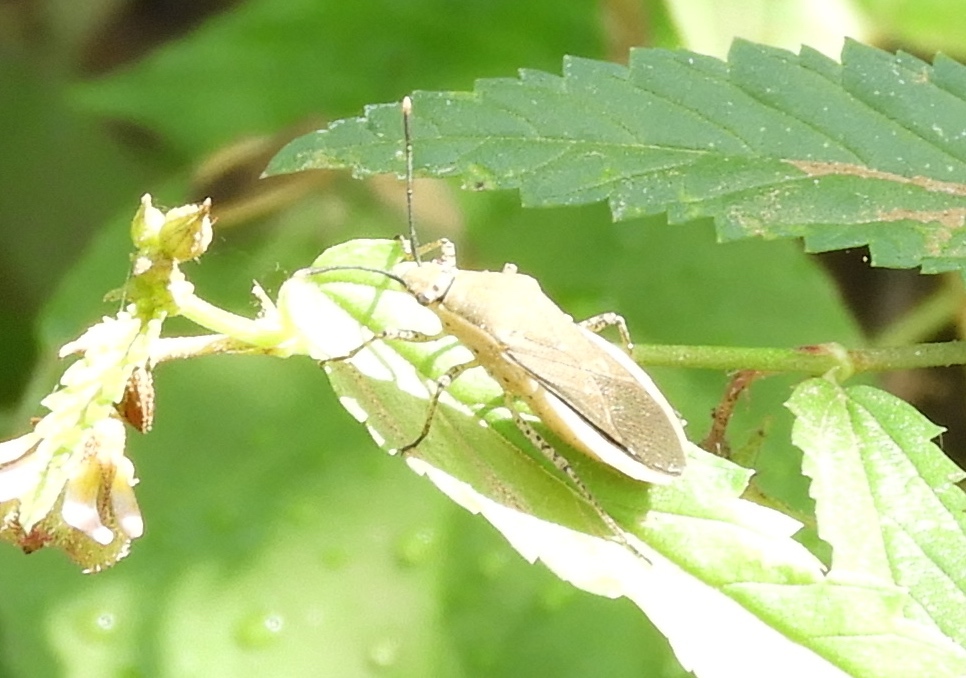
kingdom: Animalia
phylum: Arthropoda
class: Insecta
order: Hemiptera
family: Coreidae
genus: Catorhintha
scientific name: Catorhintha selector
